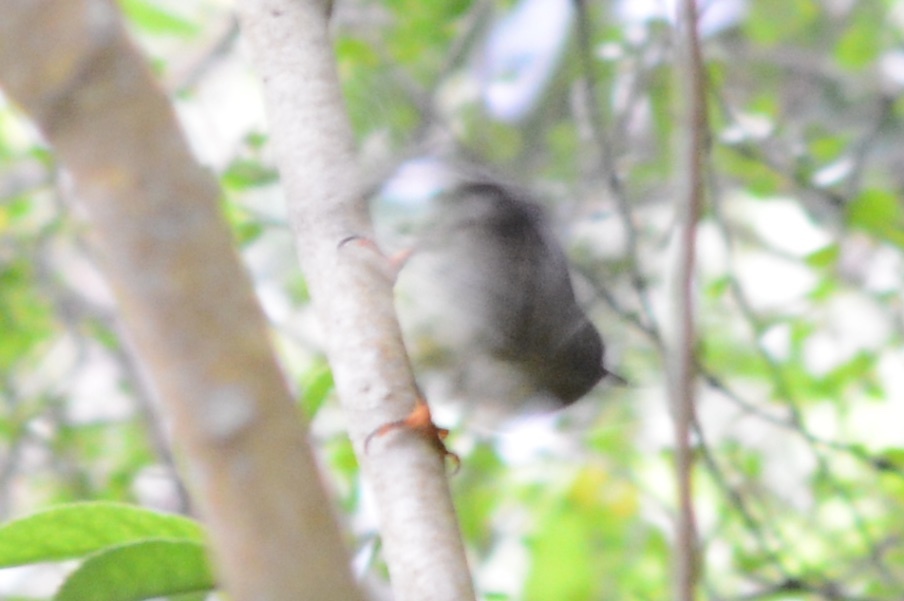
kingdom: Animalia
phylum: Chordata
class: Aves
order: Passeriformes
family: Petroicidae
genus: Petroica
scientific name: Petroica macrocephala
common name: Tomtit
